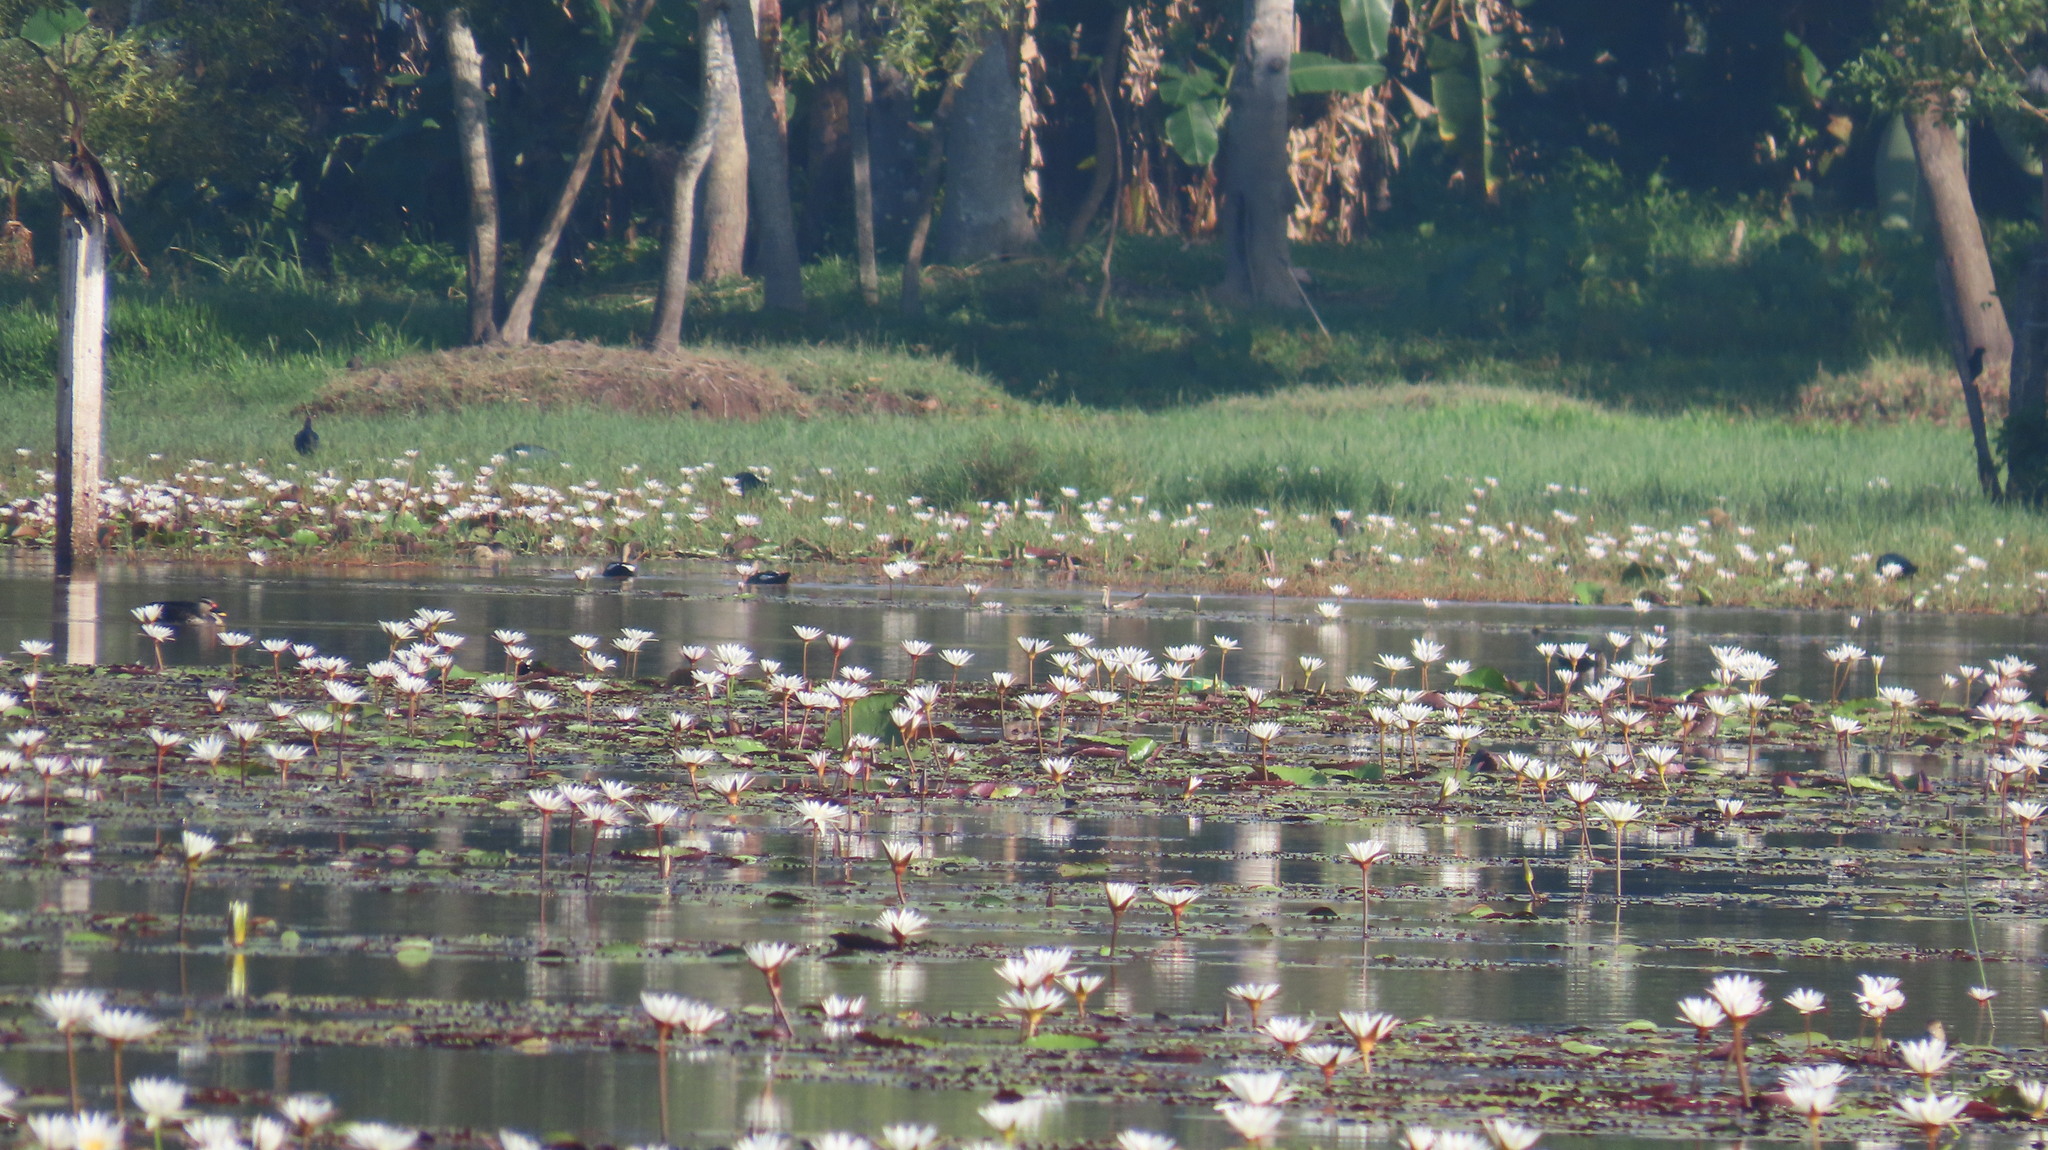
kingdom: Animalia
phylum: Chordata
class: Aves
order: Anseriformes
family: Anatidae
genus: Anas
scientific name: Anas poecilorhyncha
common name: Indian spot-billed duck
